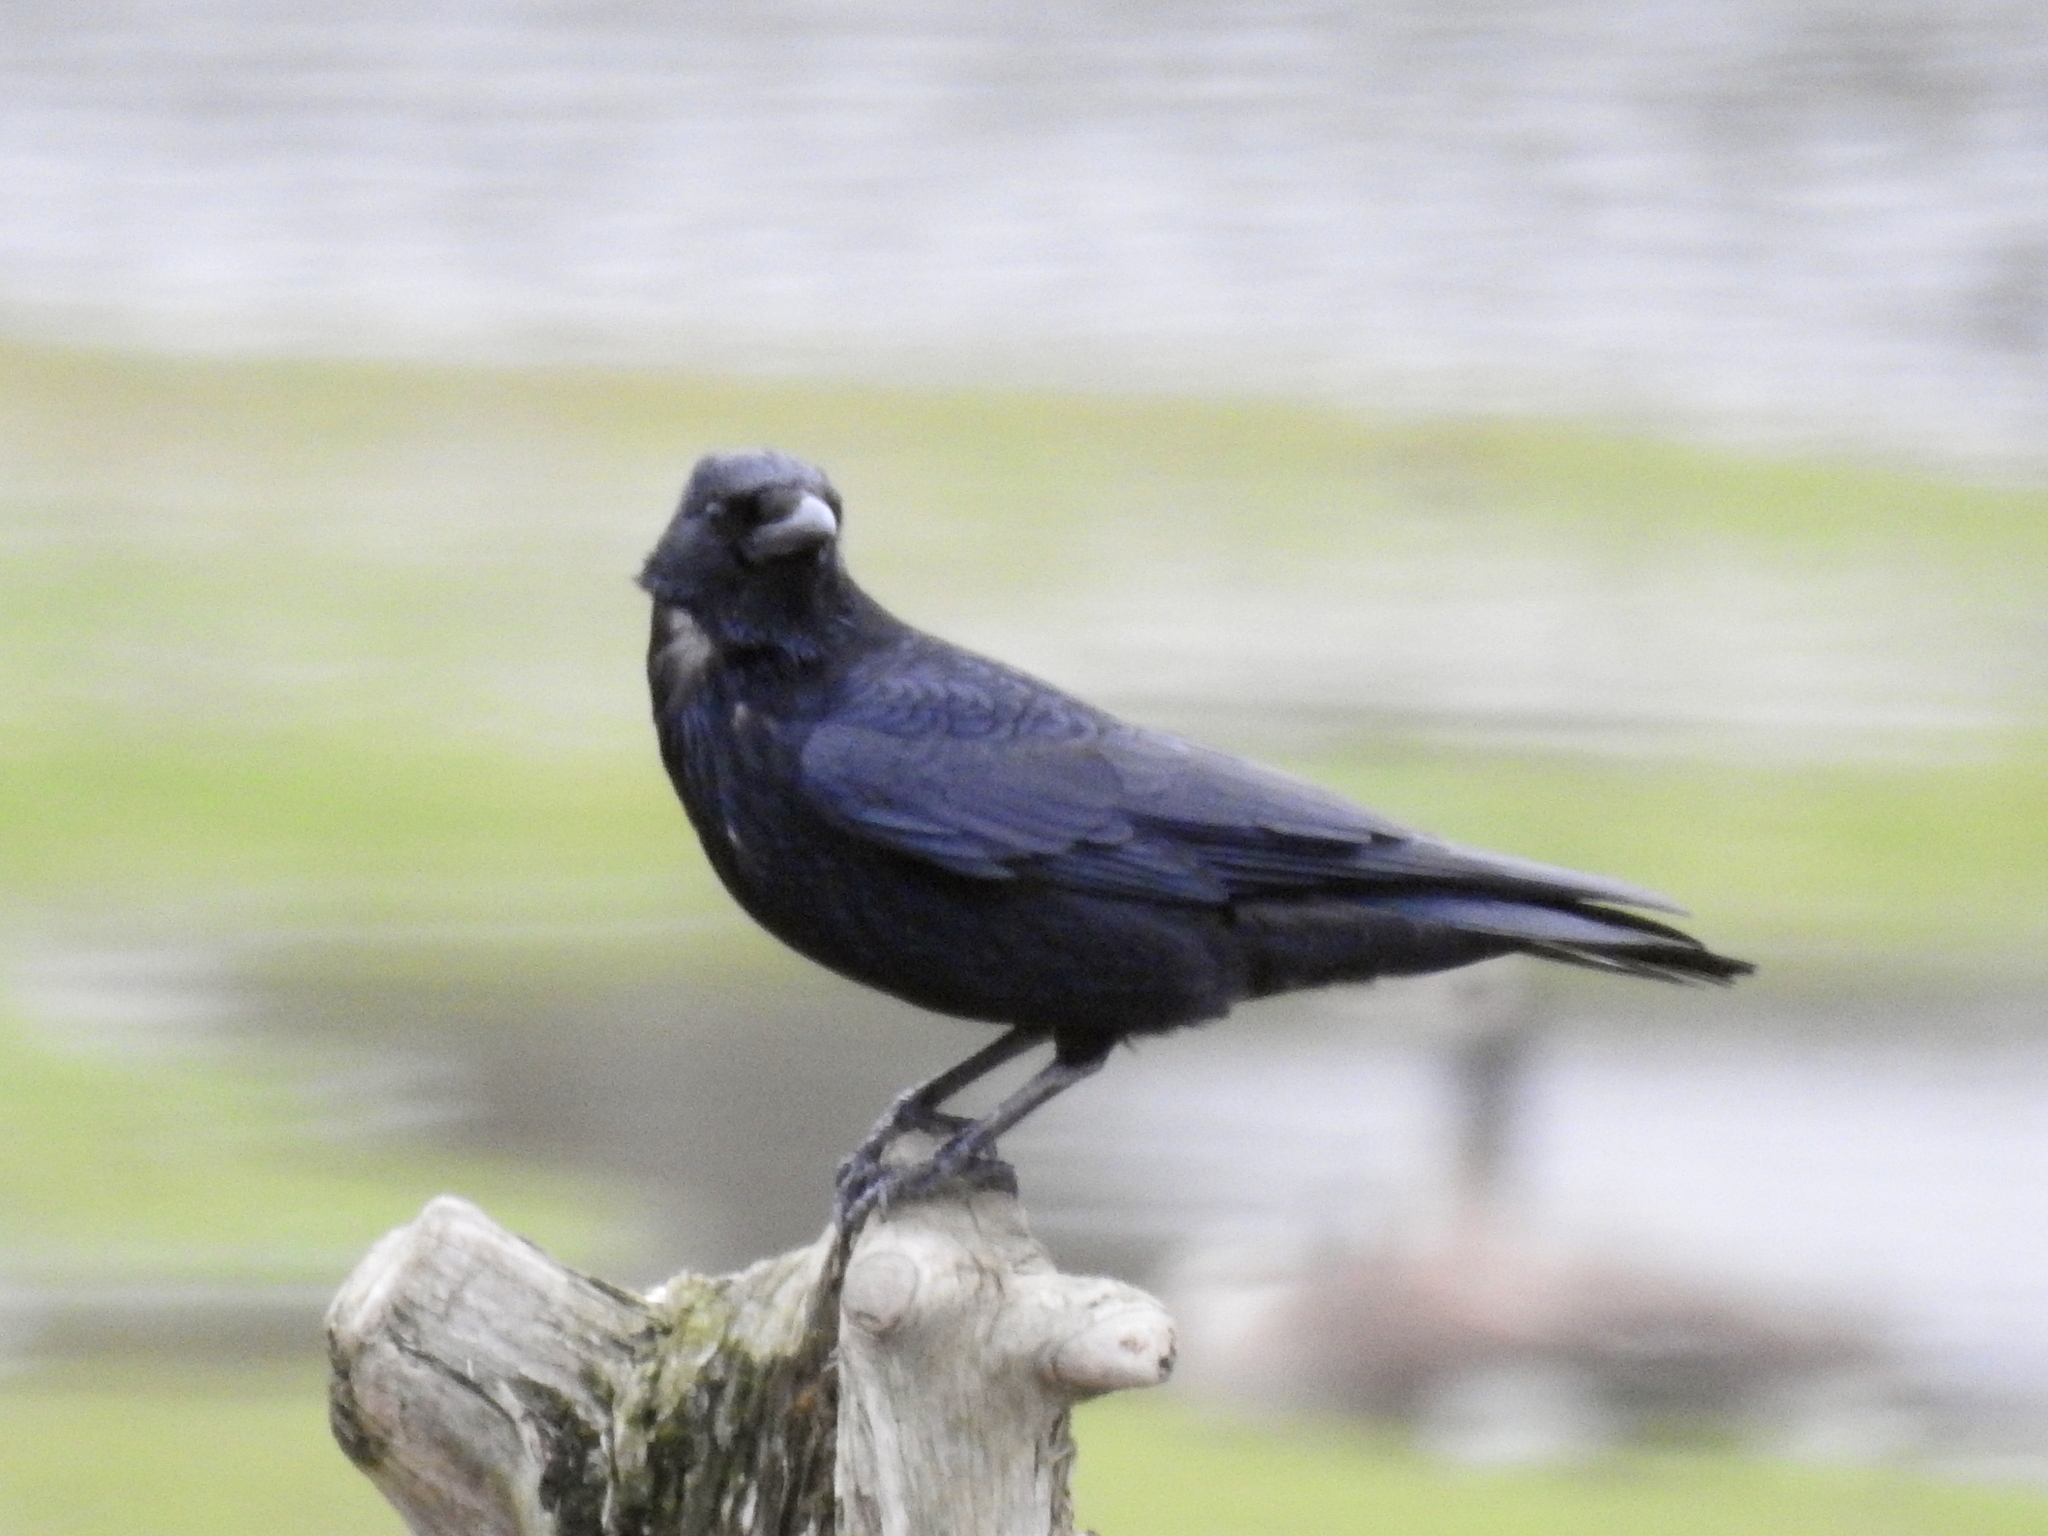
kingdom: Animalia
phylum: Chordata
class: Aves
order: Passeriformes
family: Corvidae
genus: Corvus
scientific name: Corvus corone
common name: Carrion crow
